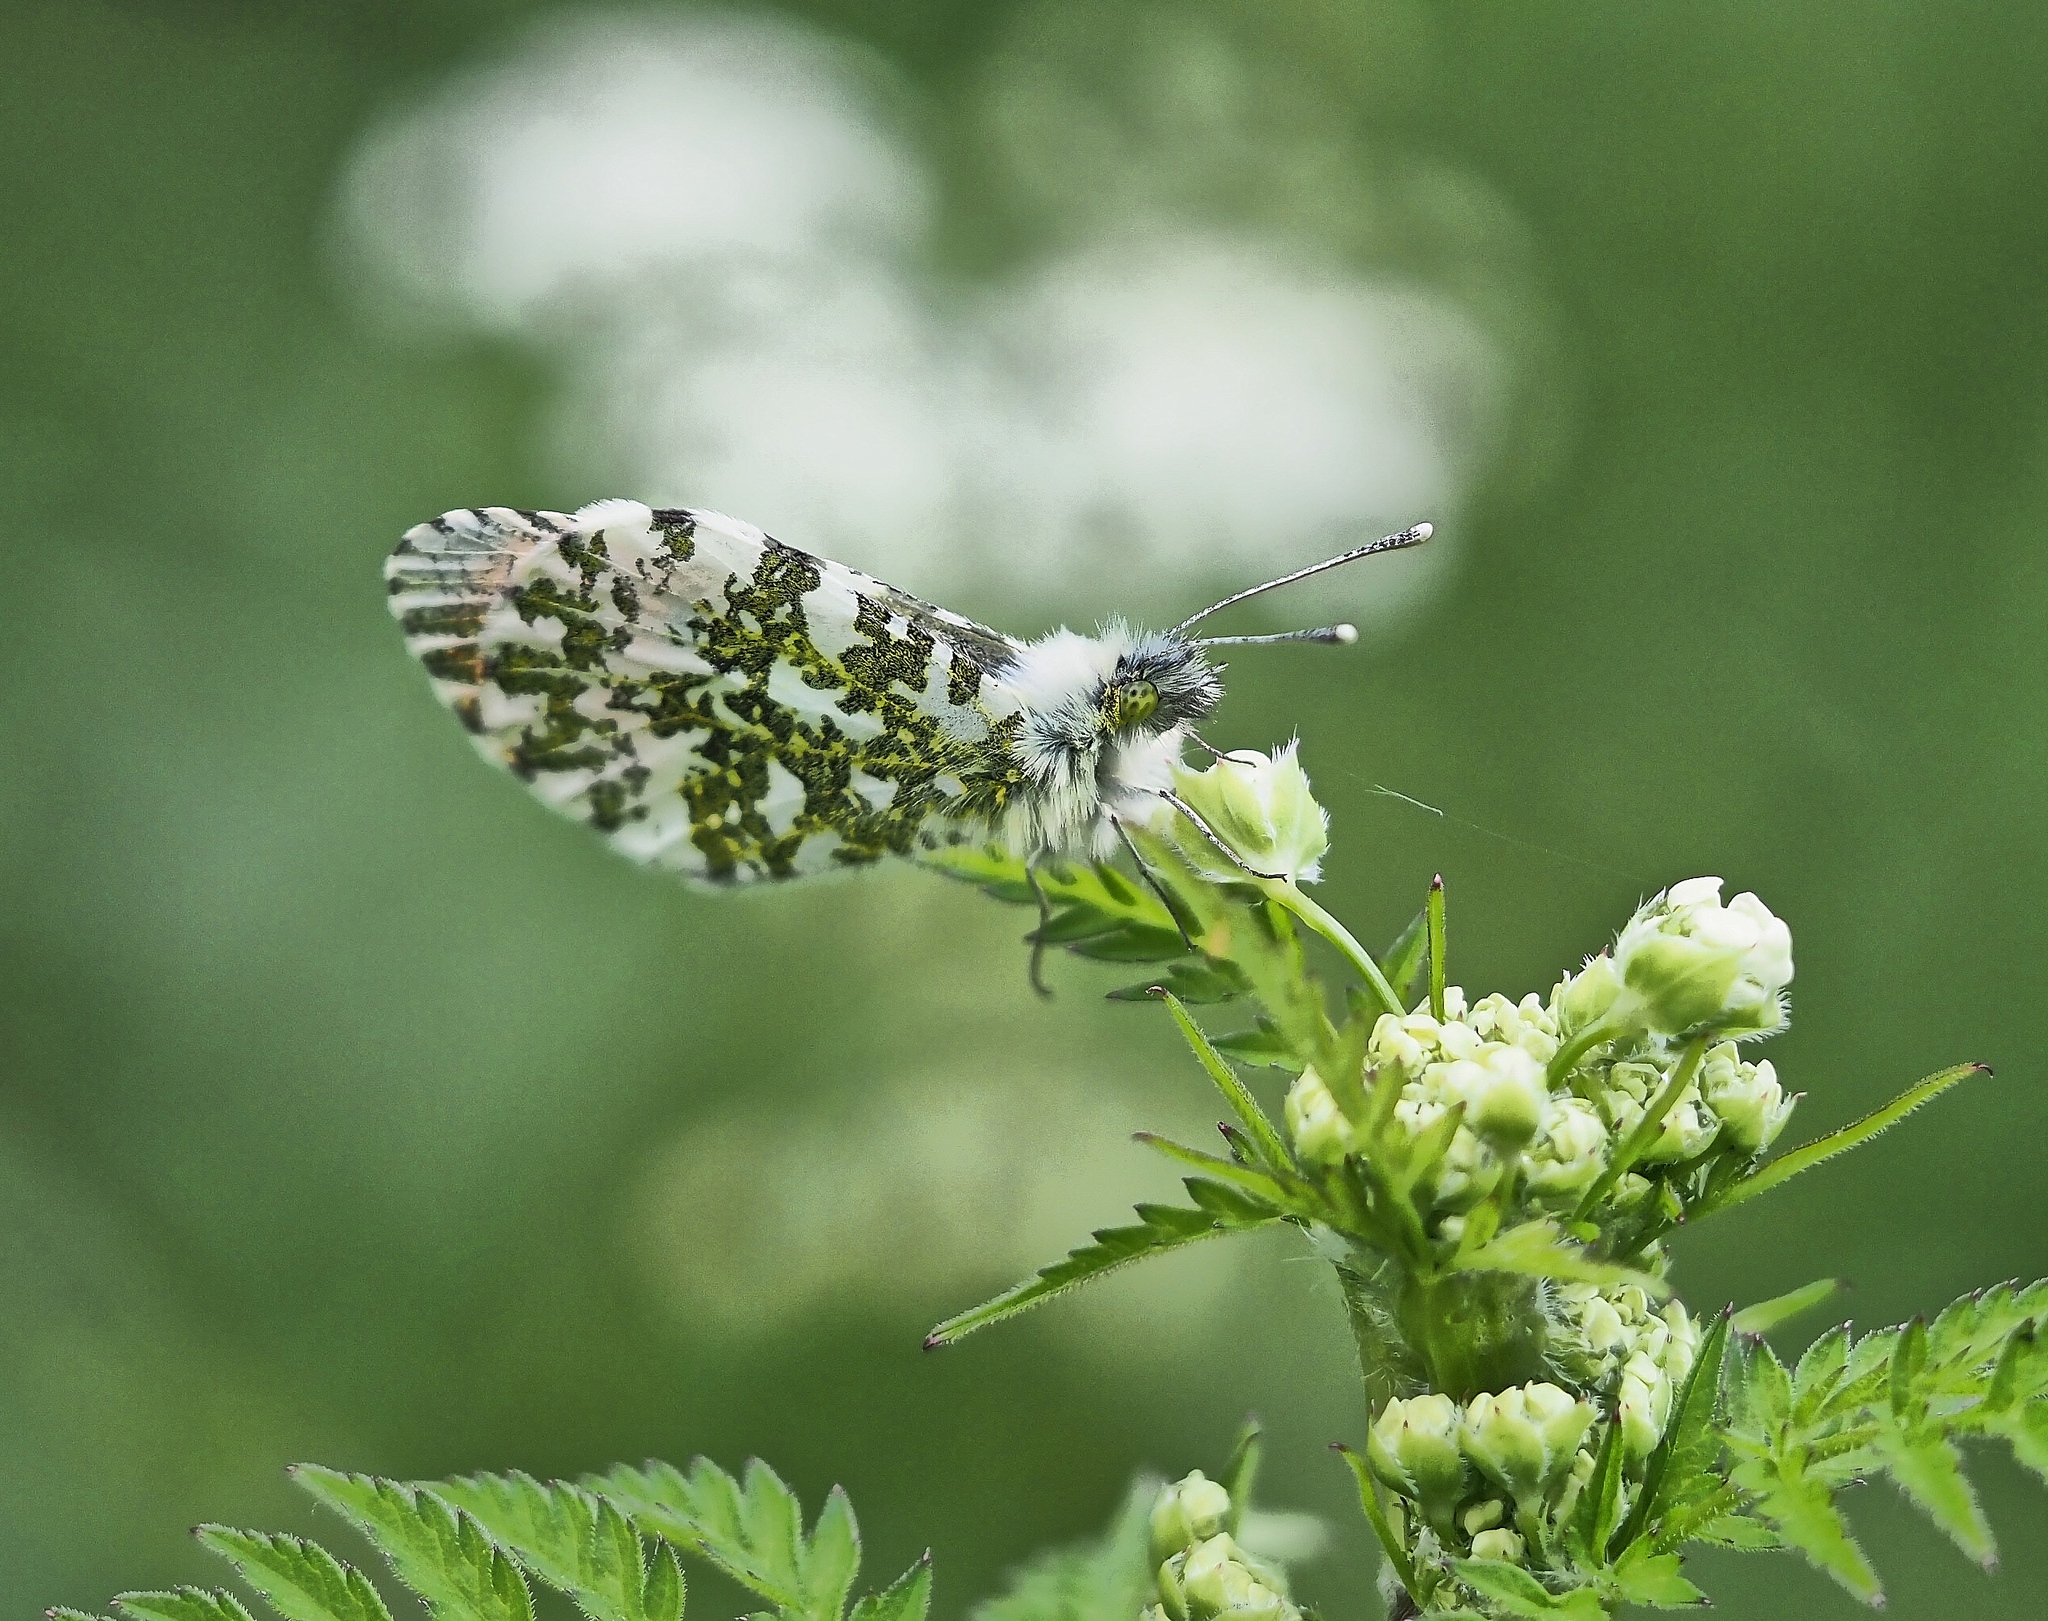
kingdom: Animalia
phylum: Arthropoda
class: Insecta
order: Lepidoptera
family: Pieridae
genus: Anthocharis
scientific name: Anthocharis cardamines
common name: Orange-tip
